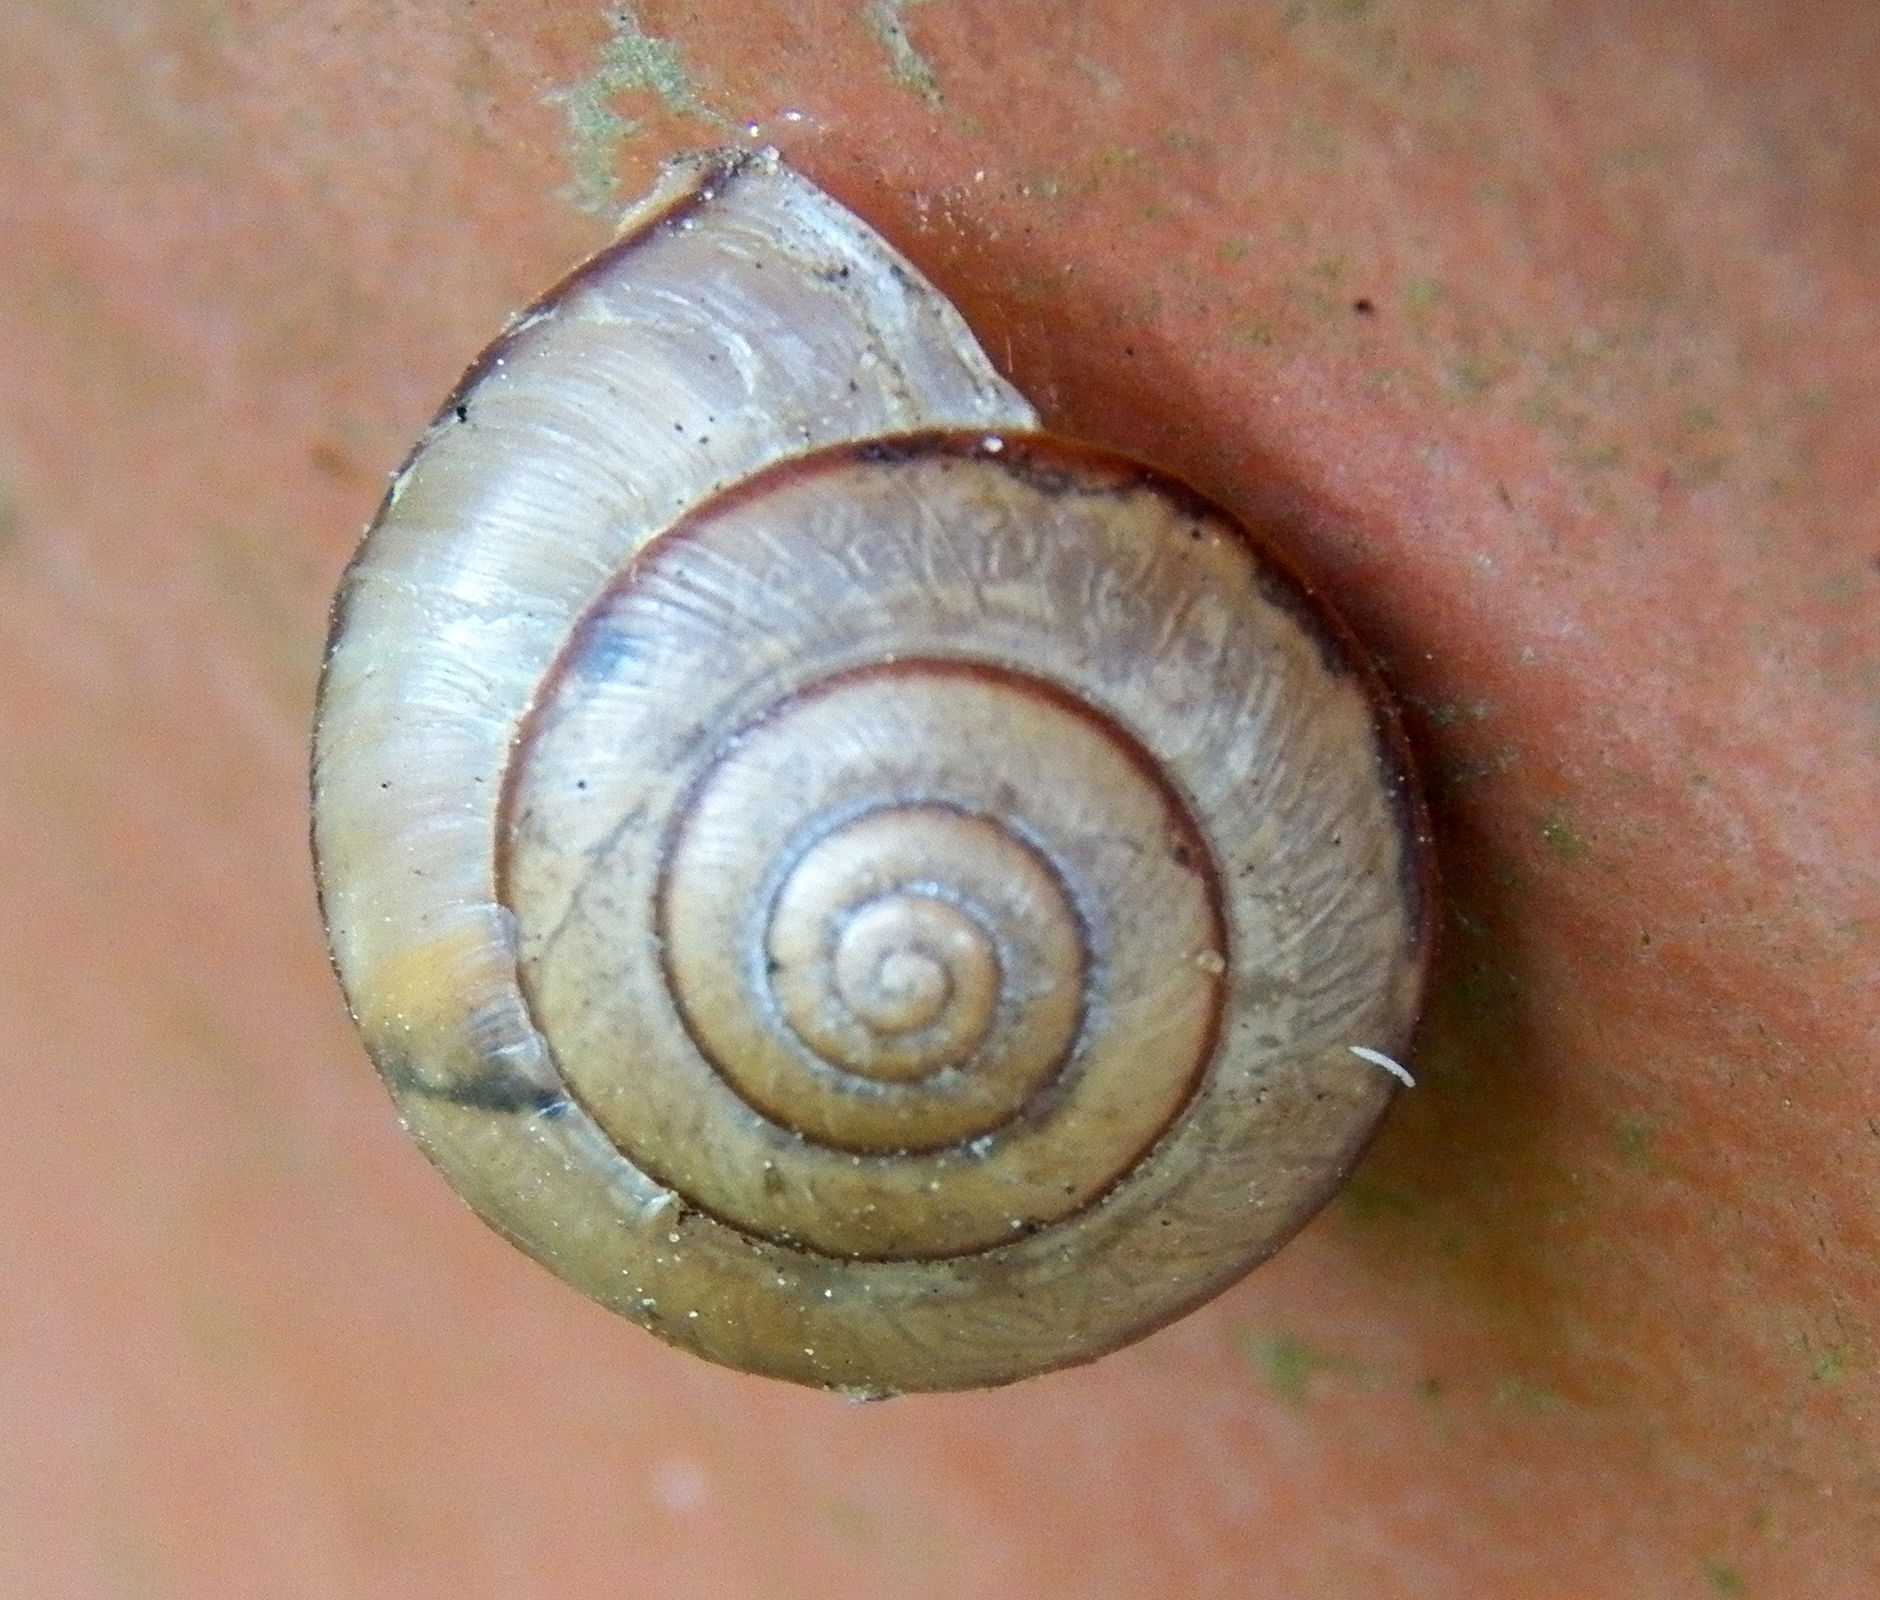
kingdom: Animalia
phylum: Mollusca
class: Gastropoda
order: Stylommatophora
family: Camaenidae
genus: Bradybaena
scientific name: Bradybaena similaris
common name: Asian trampsnail
